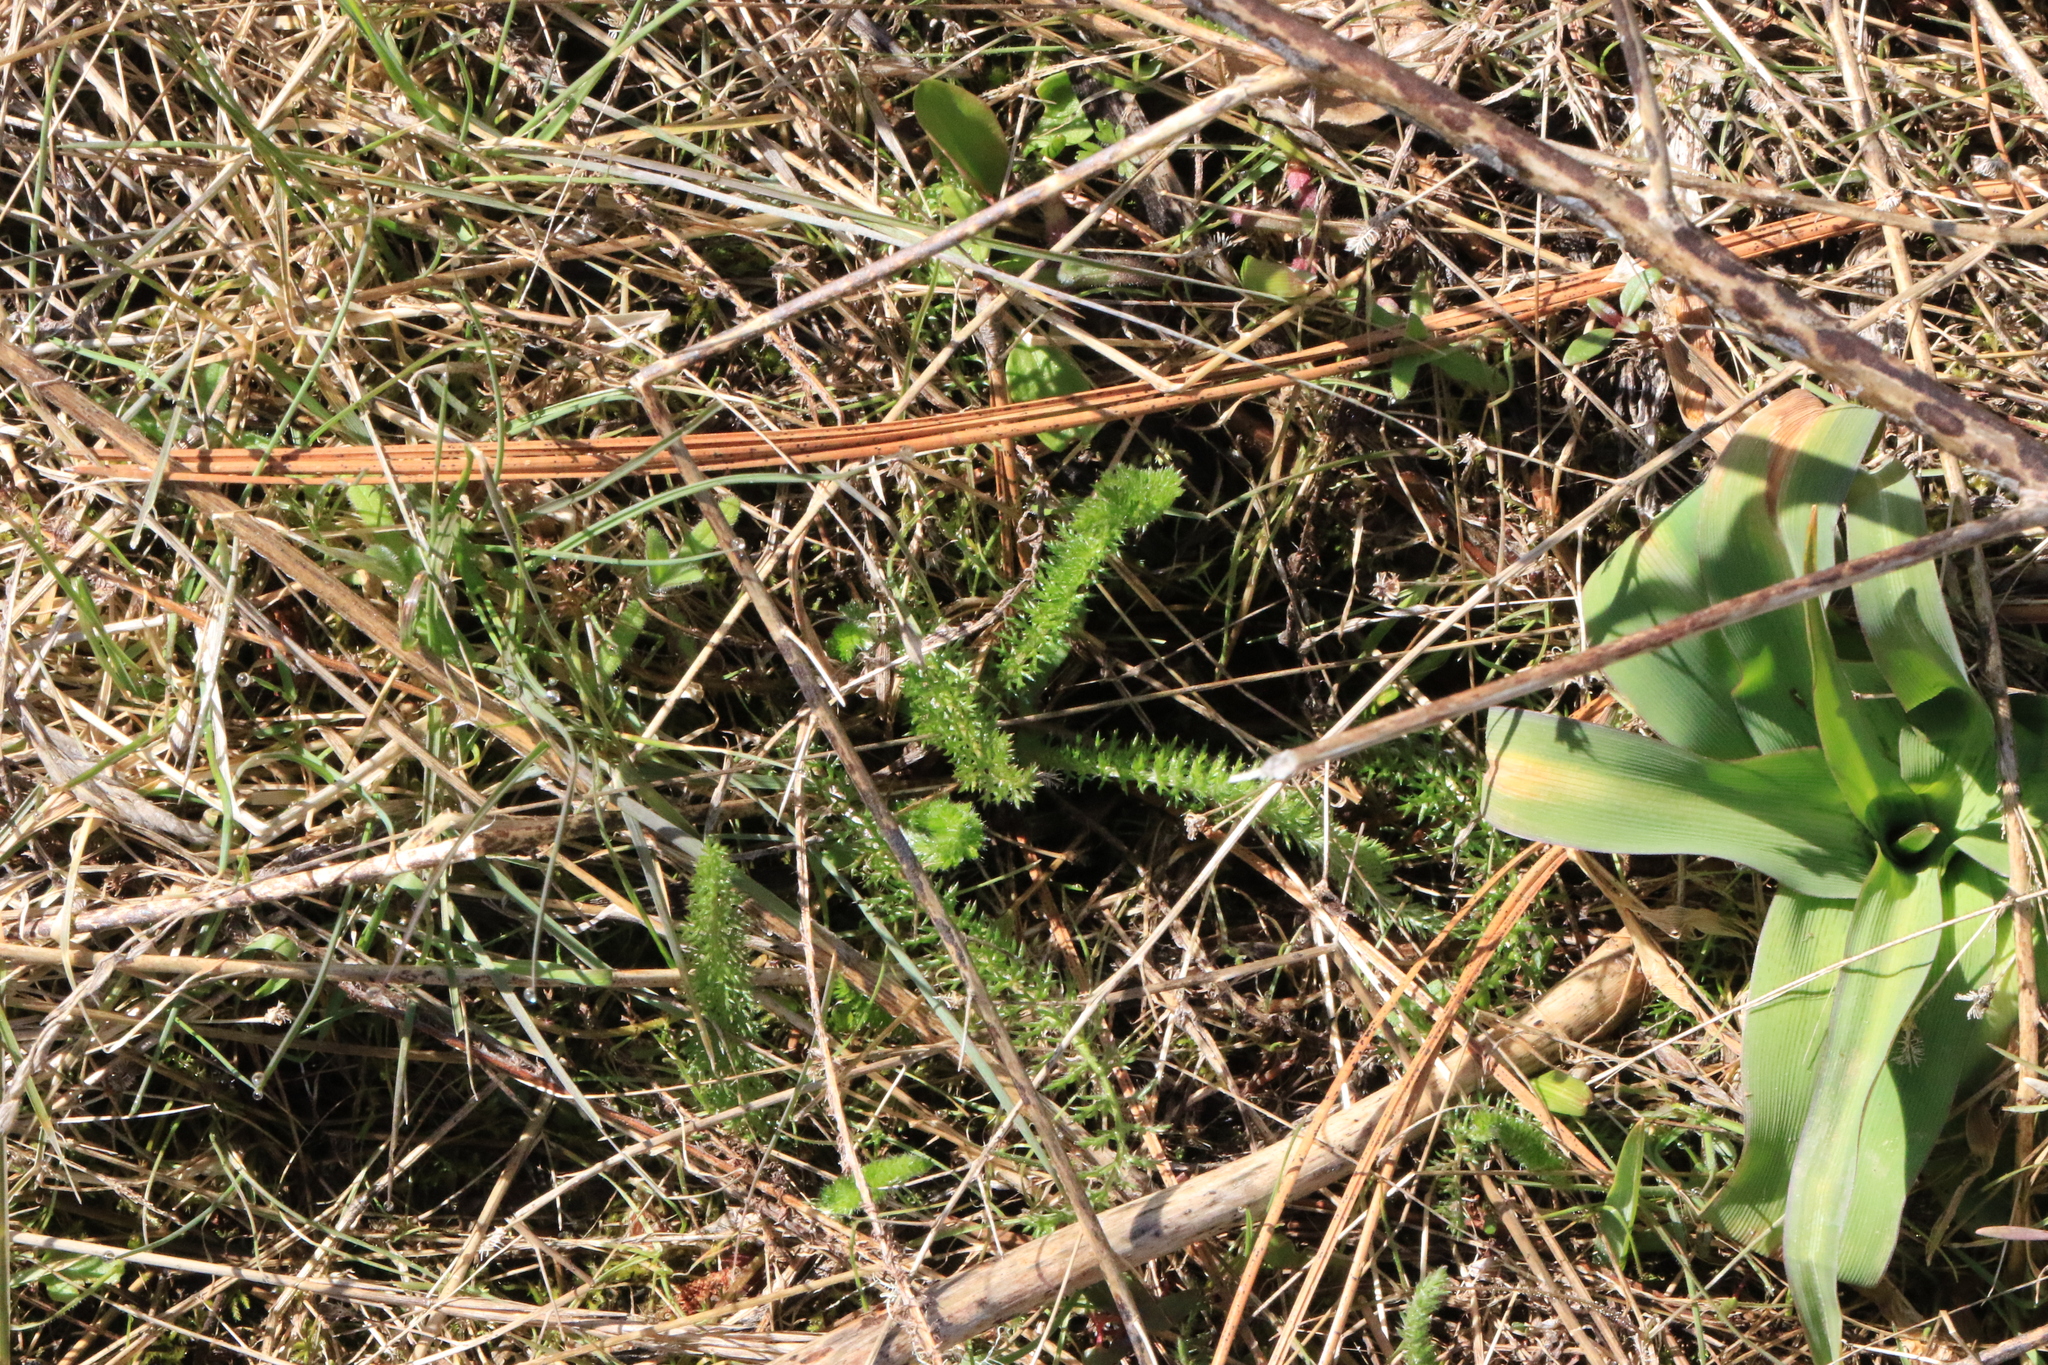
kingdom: Plantae
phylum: Tracheophyta
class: Magnoliopsida
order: Asterales
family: Asteraceae
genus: Achillea
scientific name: Achillea millefolium
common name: Yarrow
